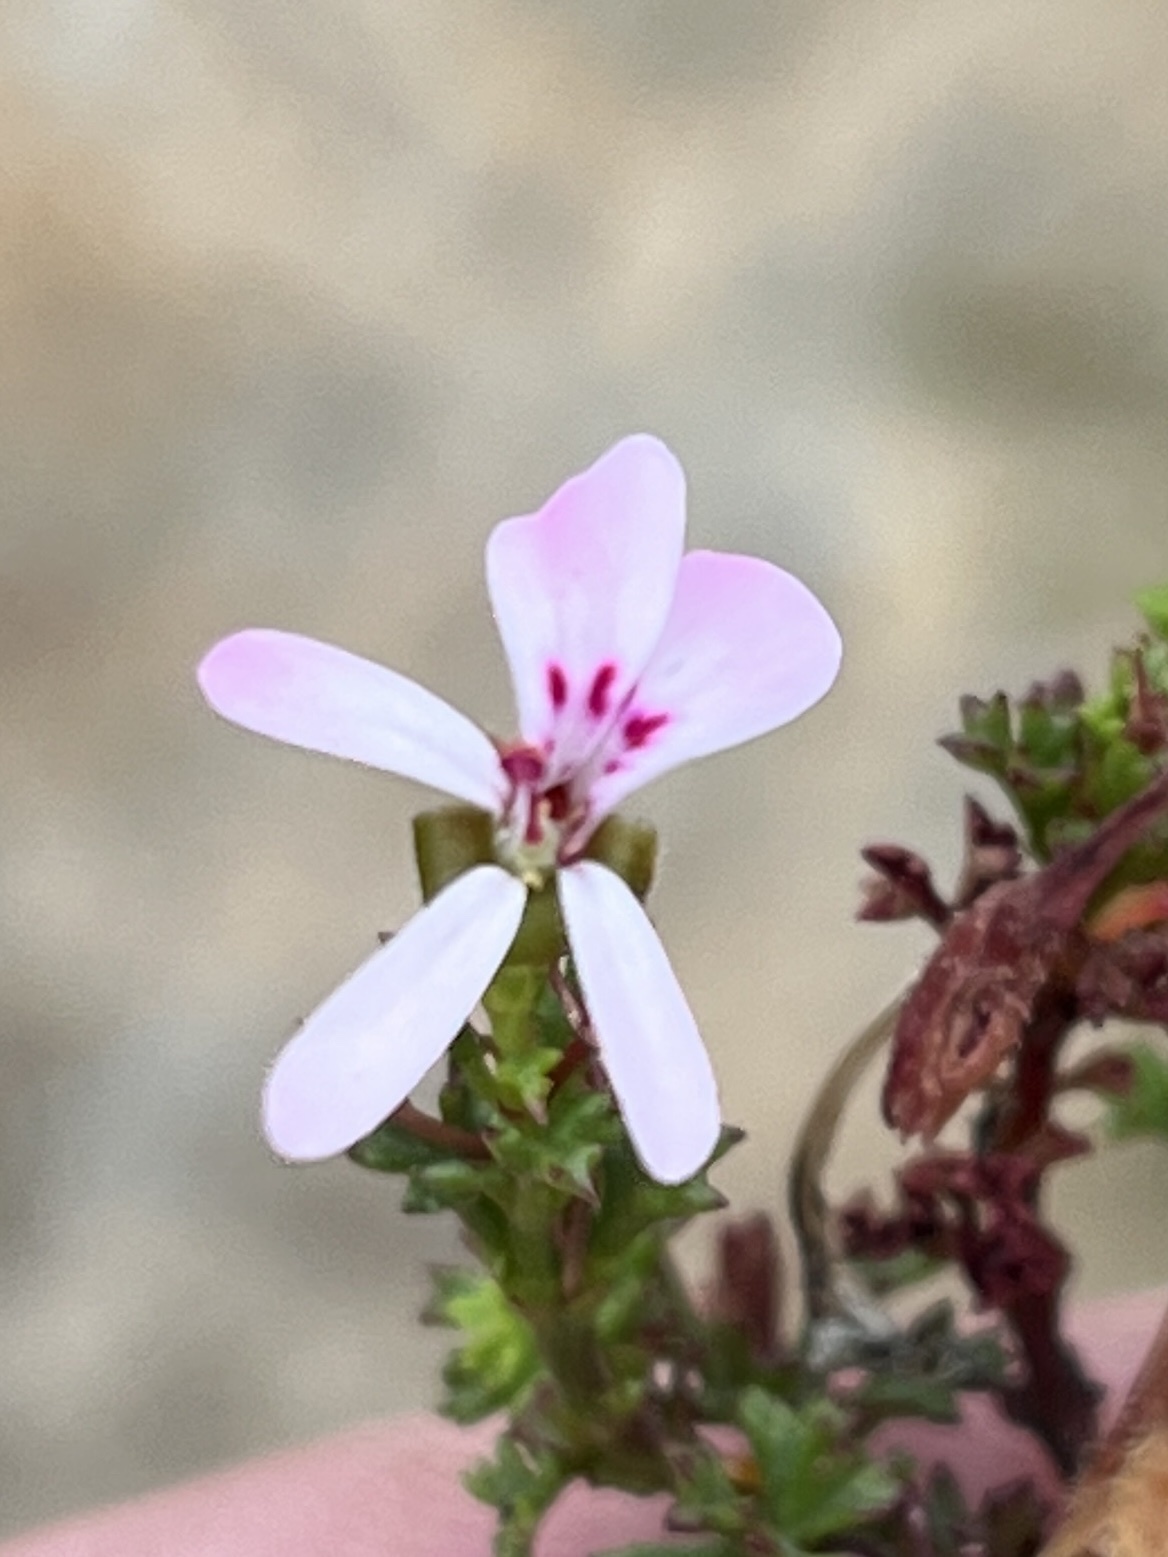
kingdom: Plantae
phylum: Tracheophyta
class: Magnoliopsida
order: Geraniales
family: Geraniaceae
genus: Pelargonium
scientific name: Pelargonium fruticosum
